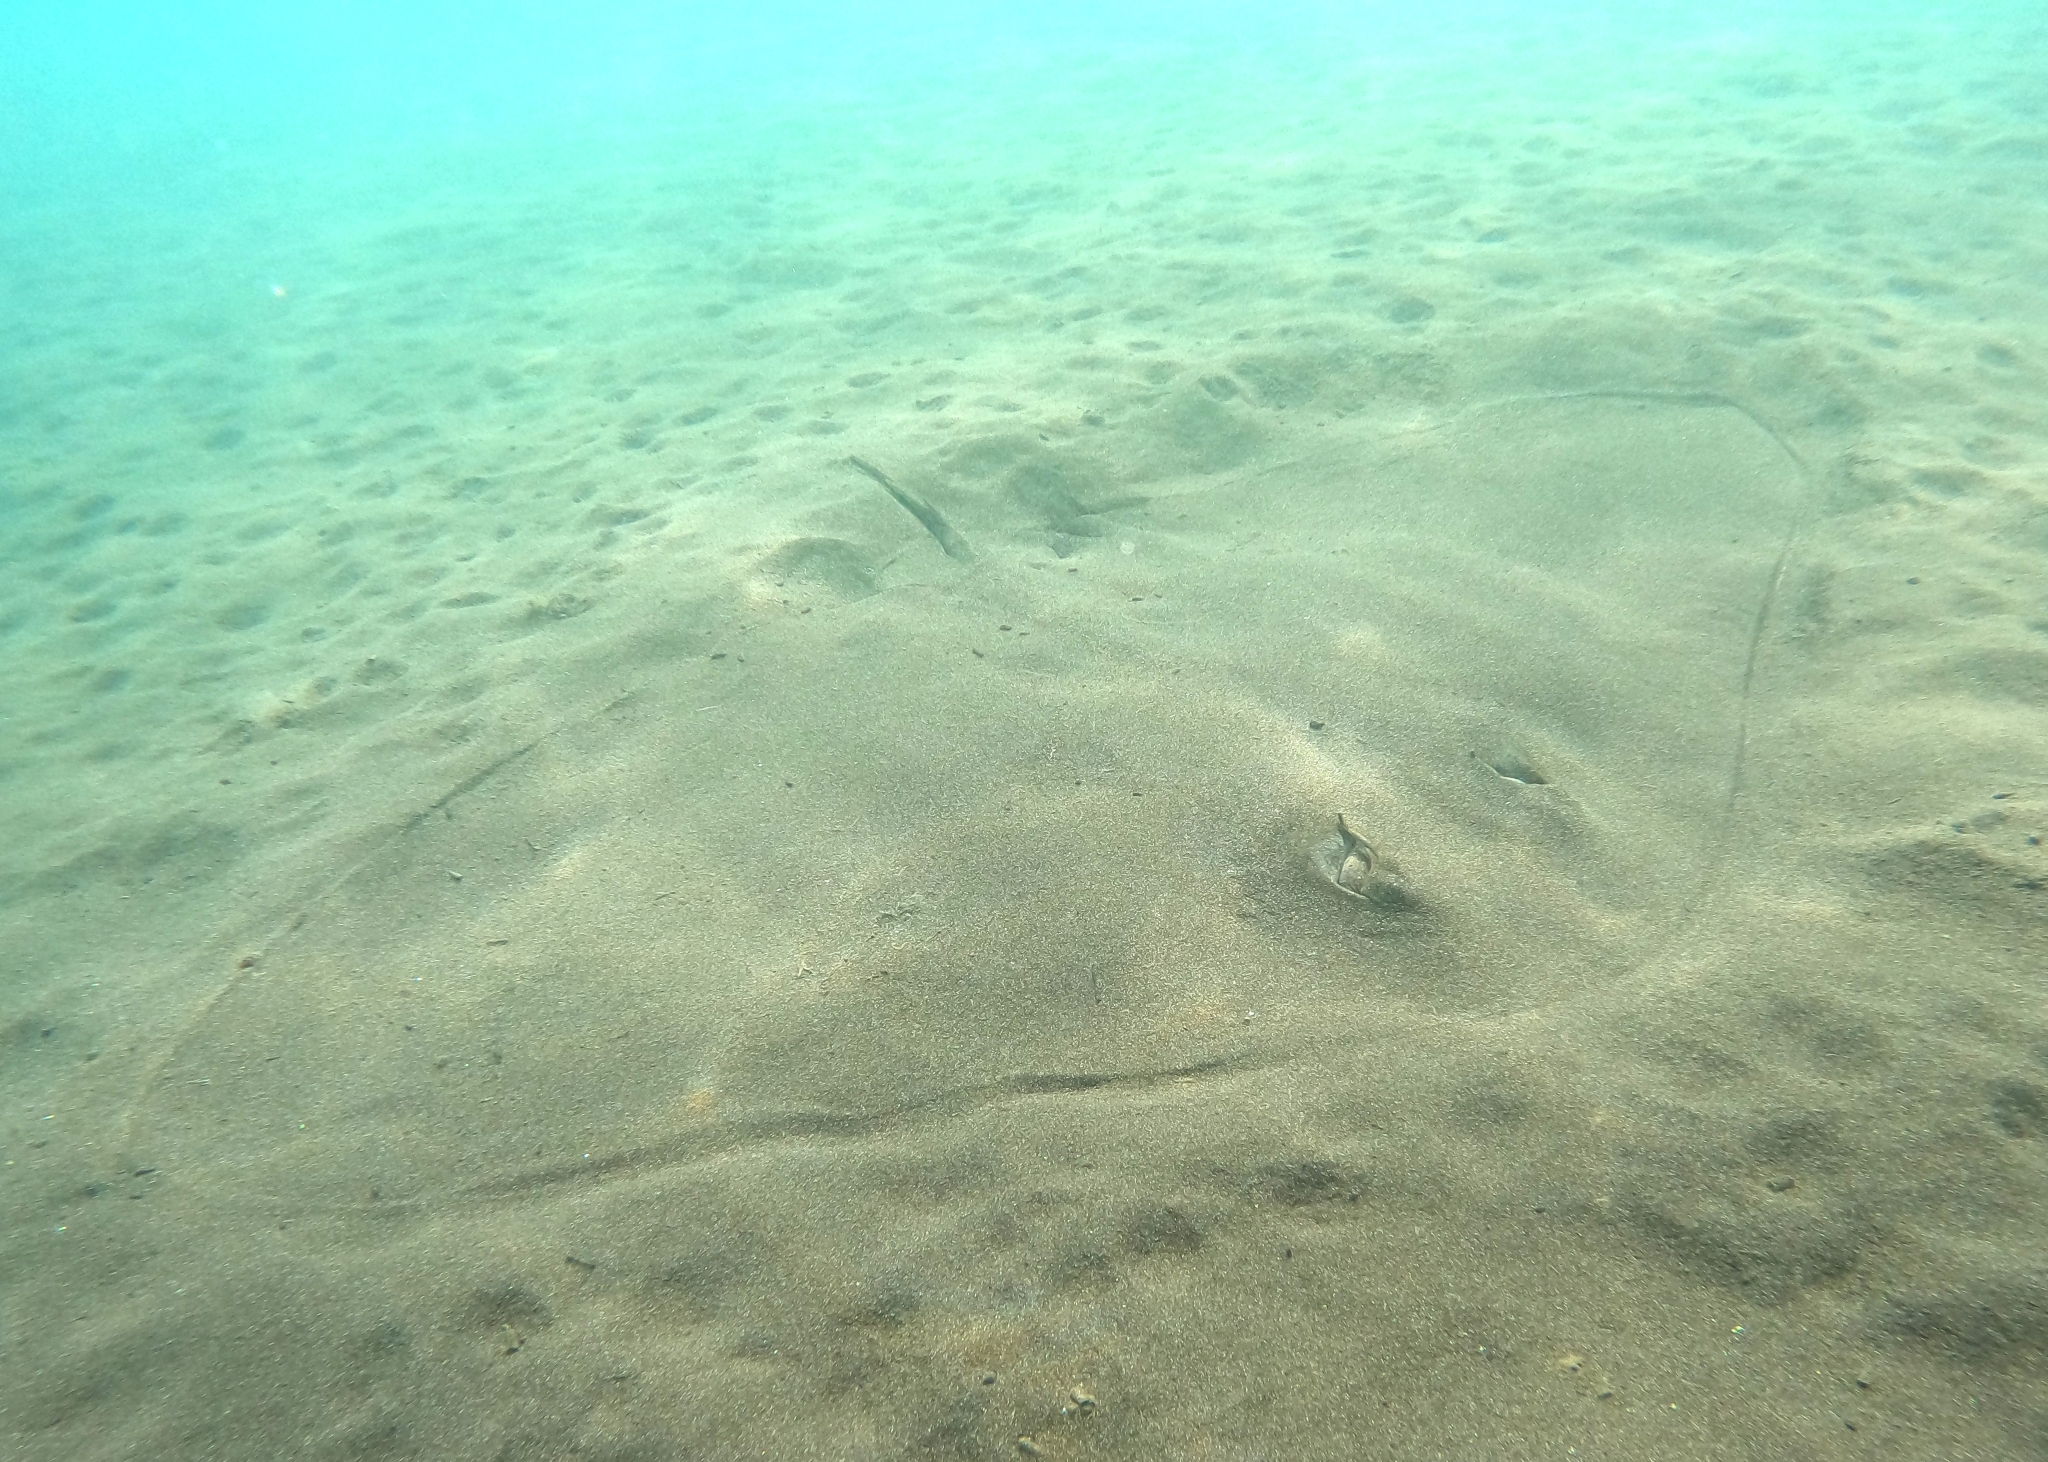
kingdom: Animalia
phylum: Chordata
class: Elasmobranchii
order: Myliobatiformes
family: Gymnuridae
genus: Gymnura
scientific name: Gymnura altavela
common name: Spiny butterfly ray
